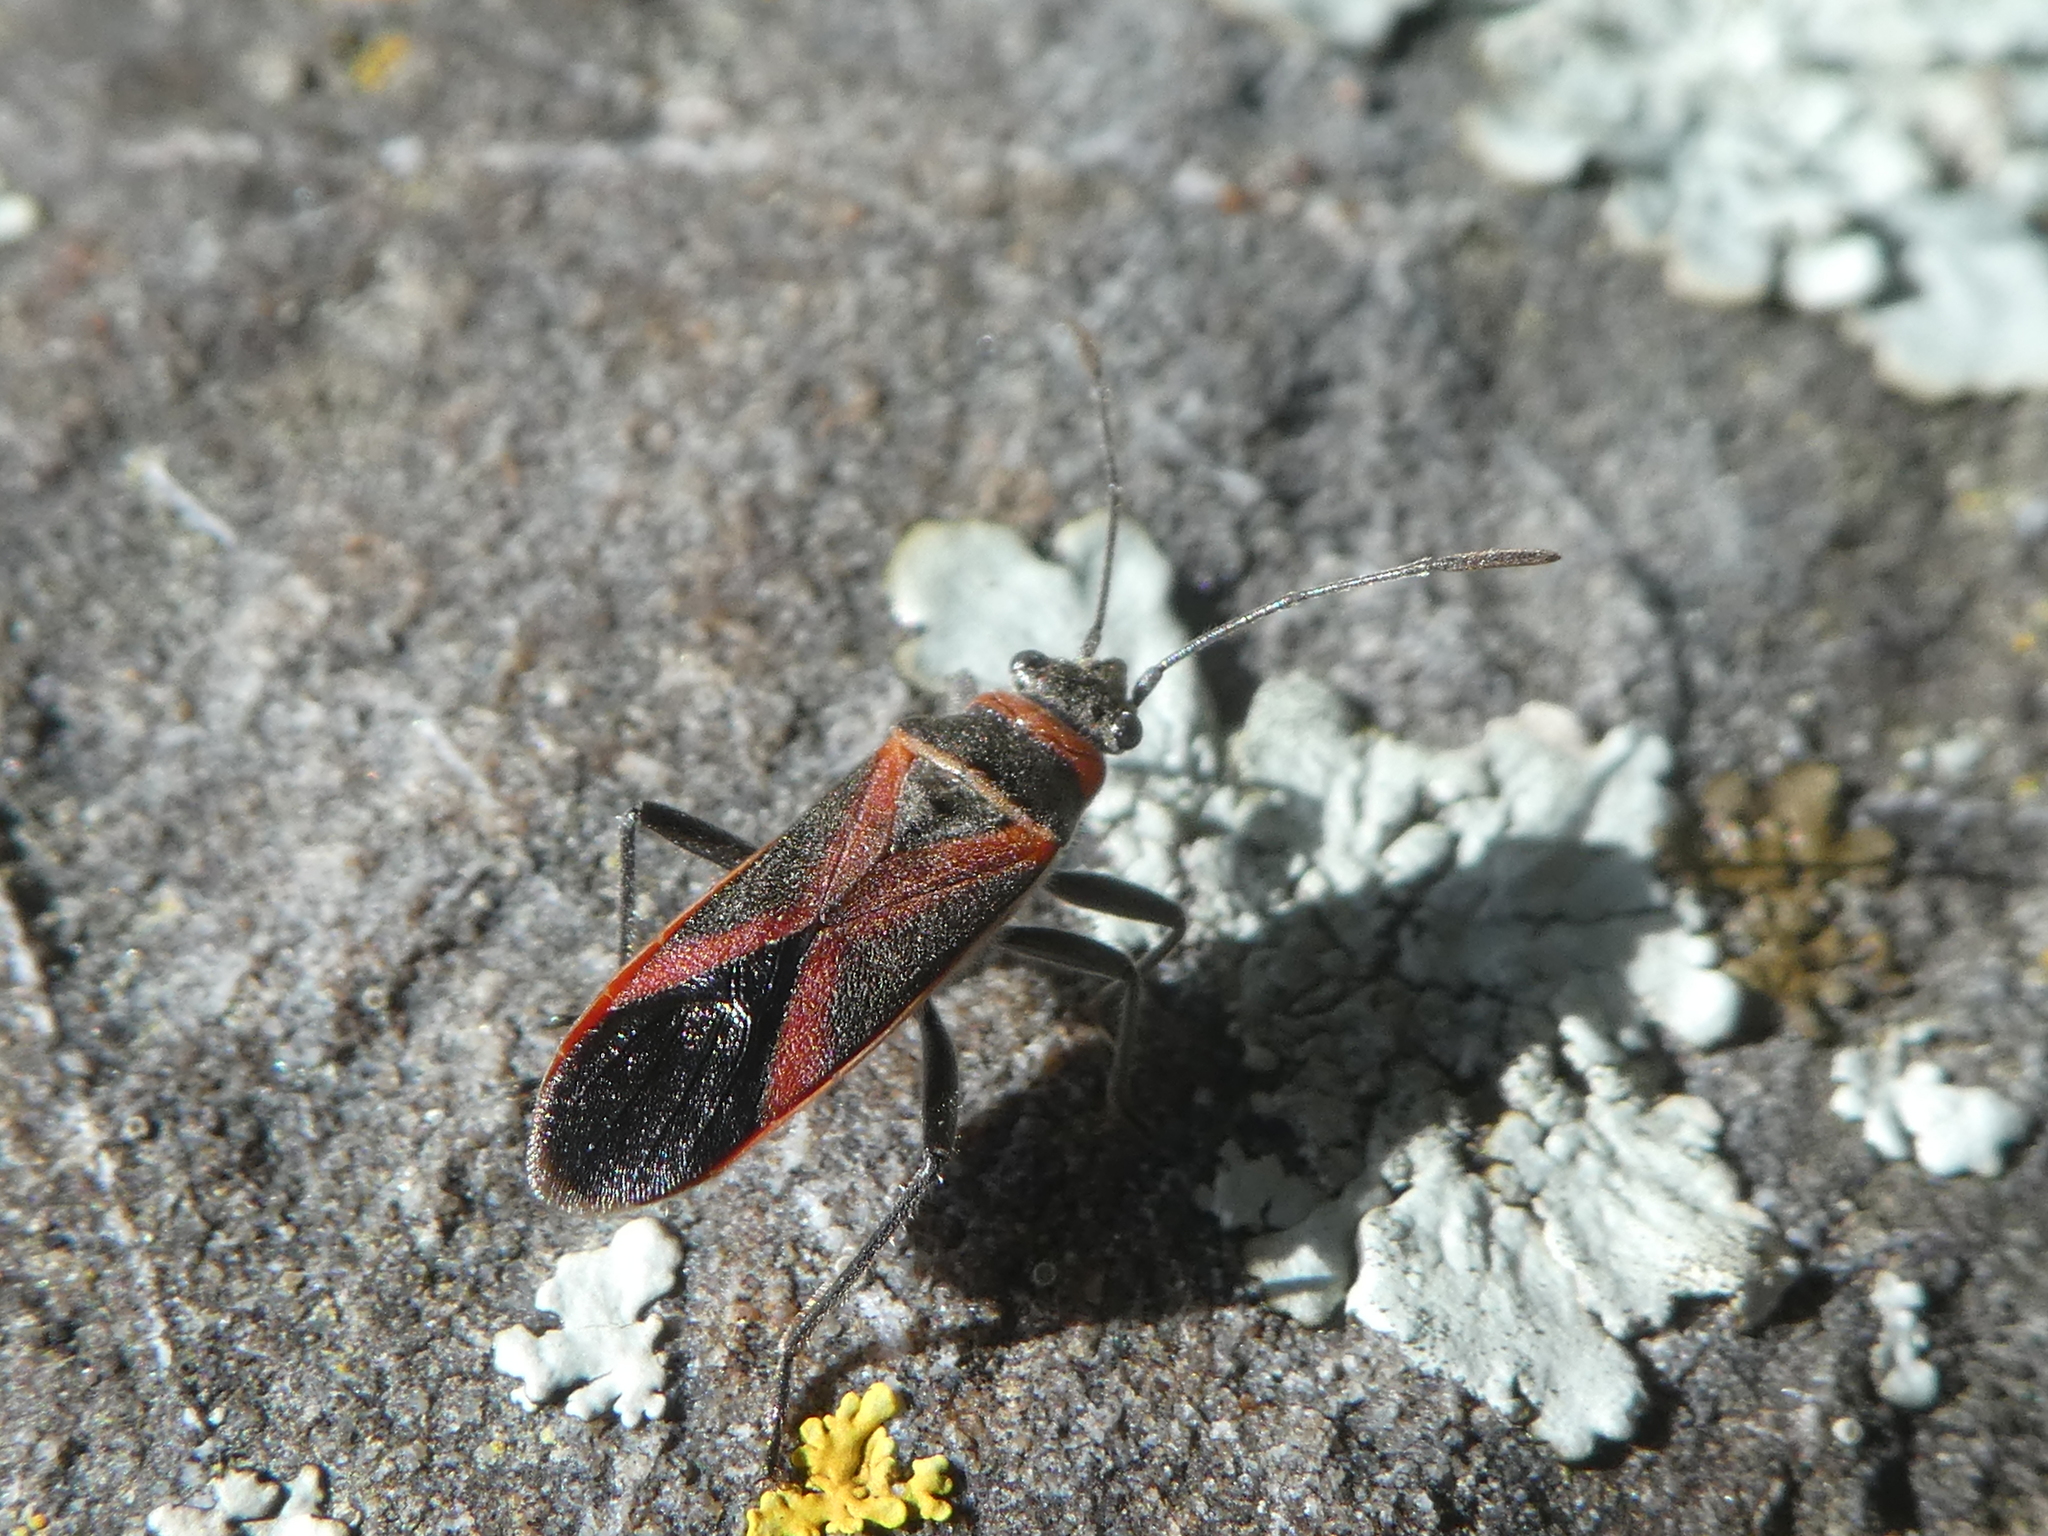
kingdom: Animalia
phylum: Arthropoda
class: Insecta
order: Hemiptera
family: Lygaeidae
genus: Arocatus
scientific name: Arocatus rusticus
